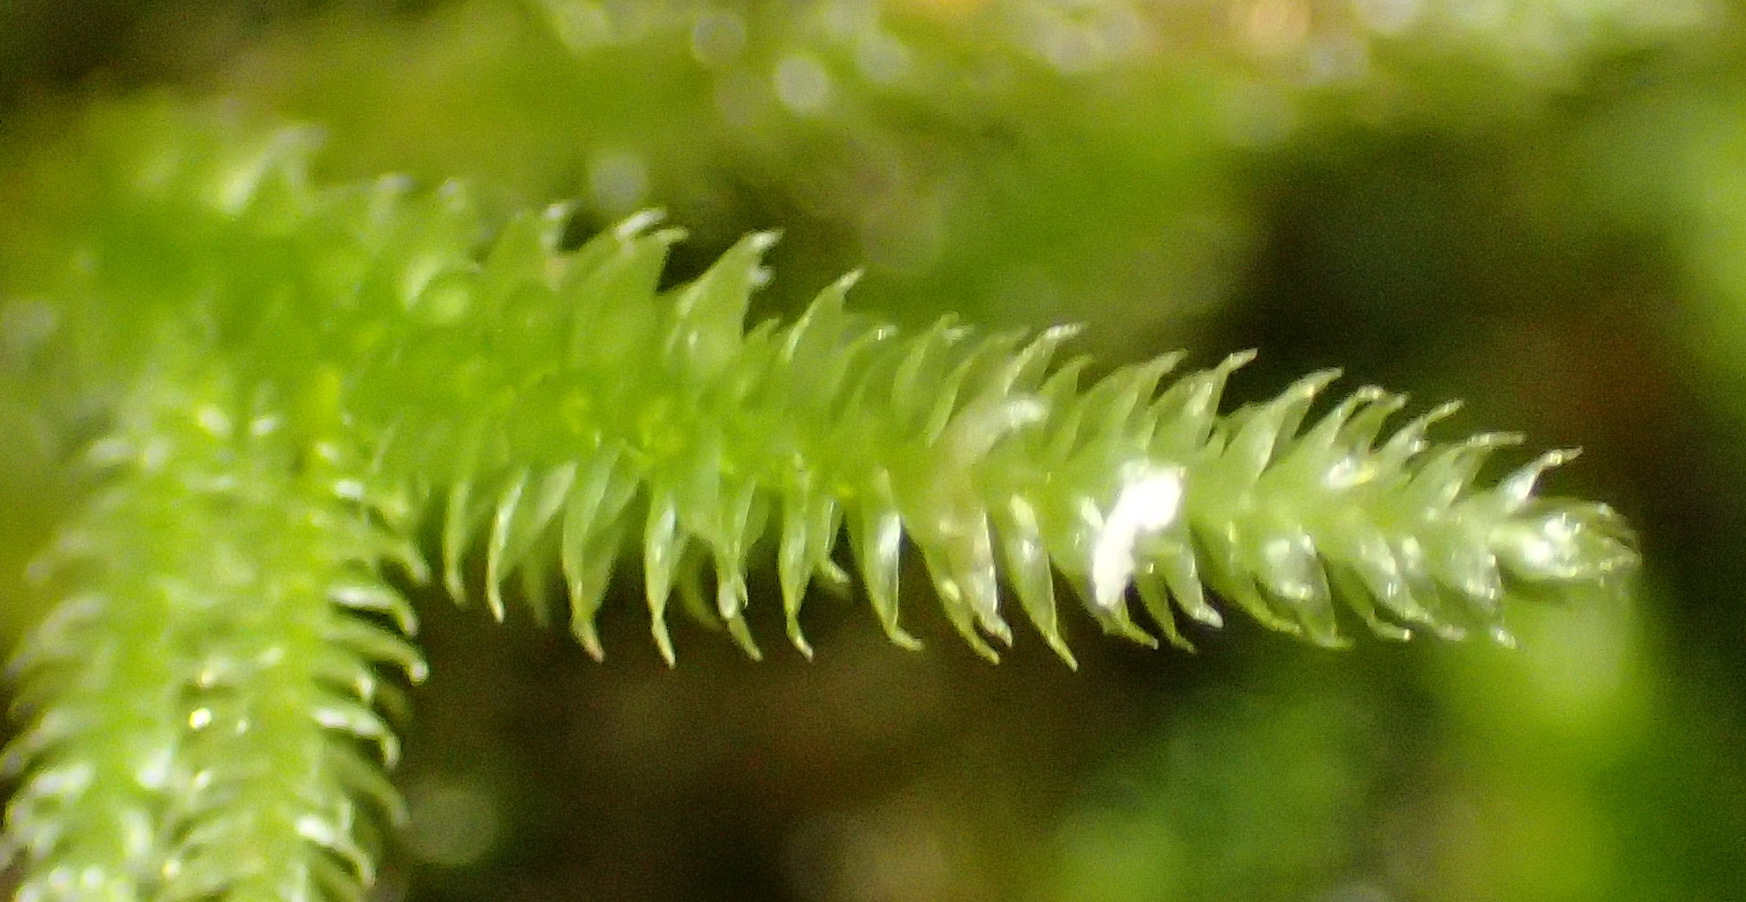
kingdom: Plantae
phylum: Bryophyta
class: Bryopsida
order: Hypnales
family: Lembophyllaceae
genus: Nogopterium
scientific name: Nogopterium gracile
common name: Bird's-foot wing-moss
